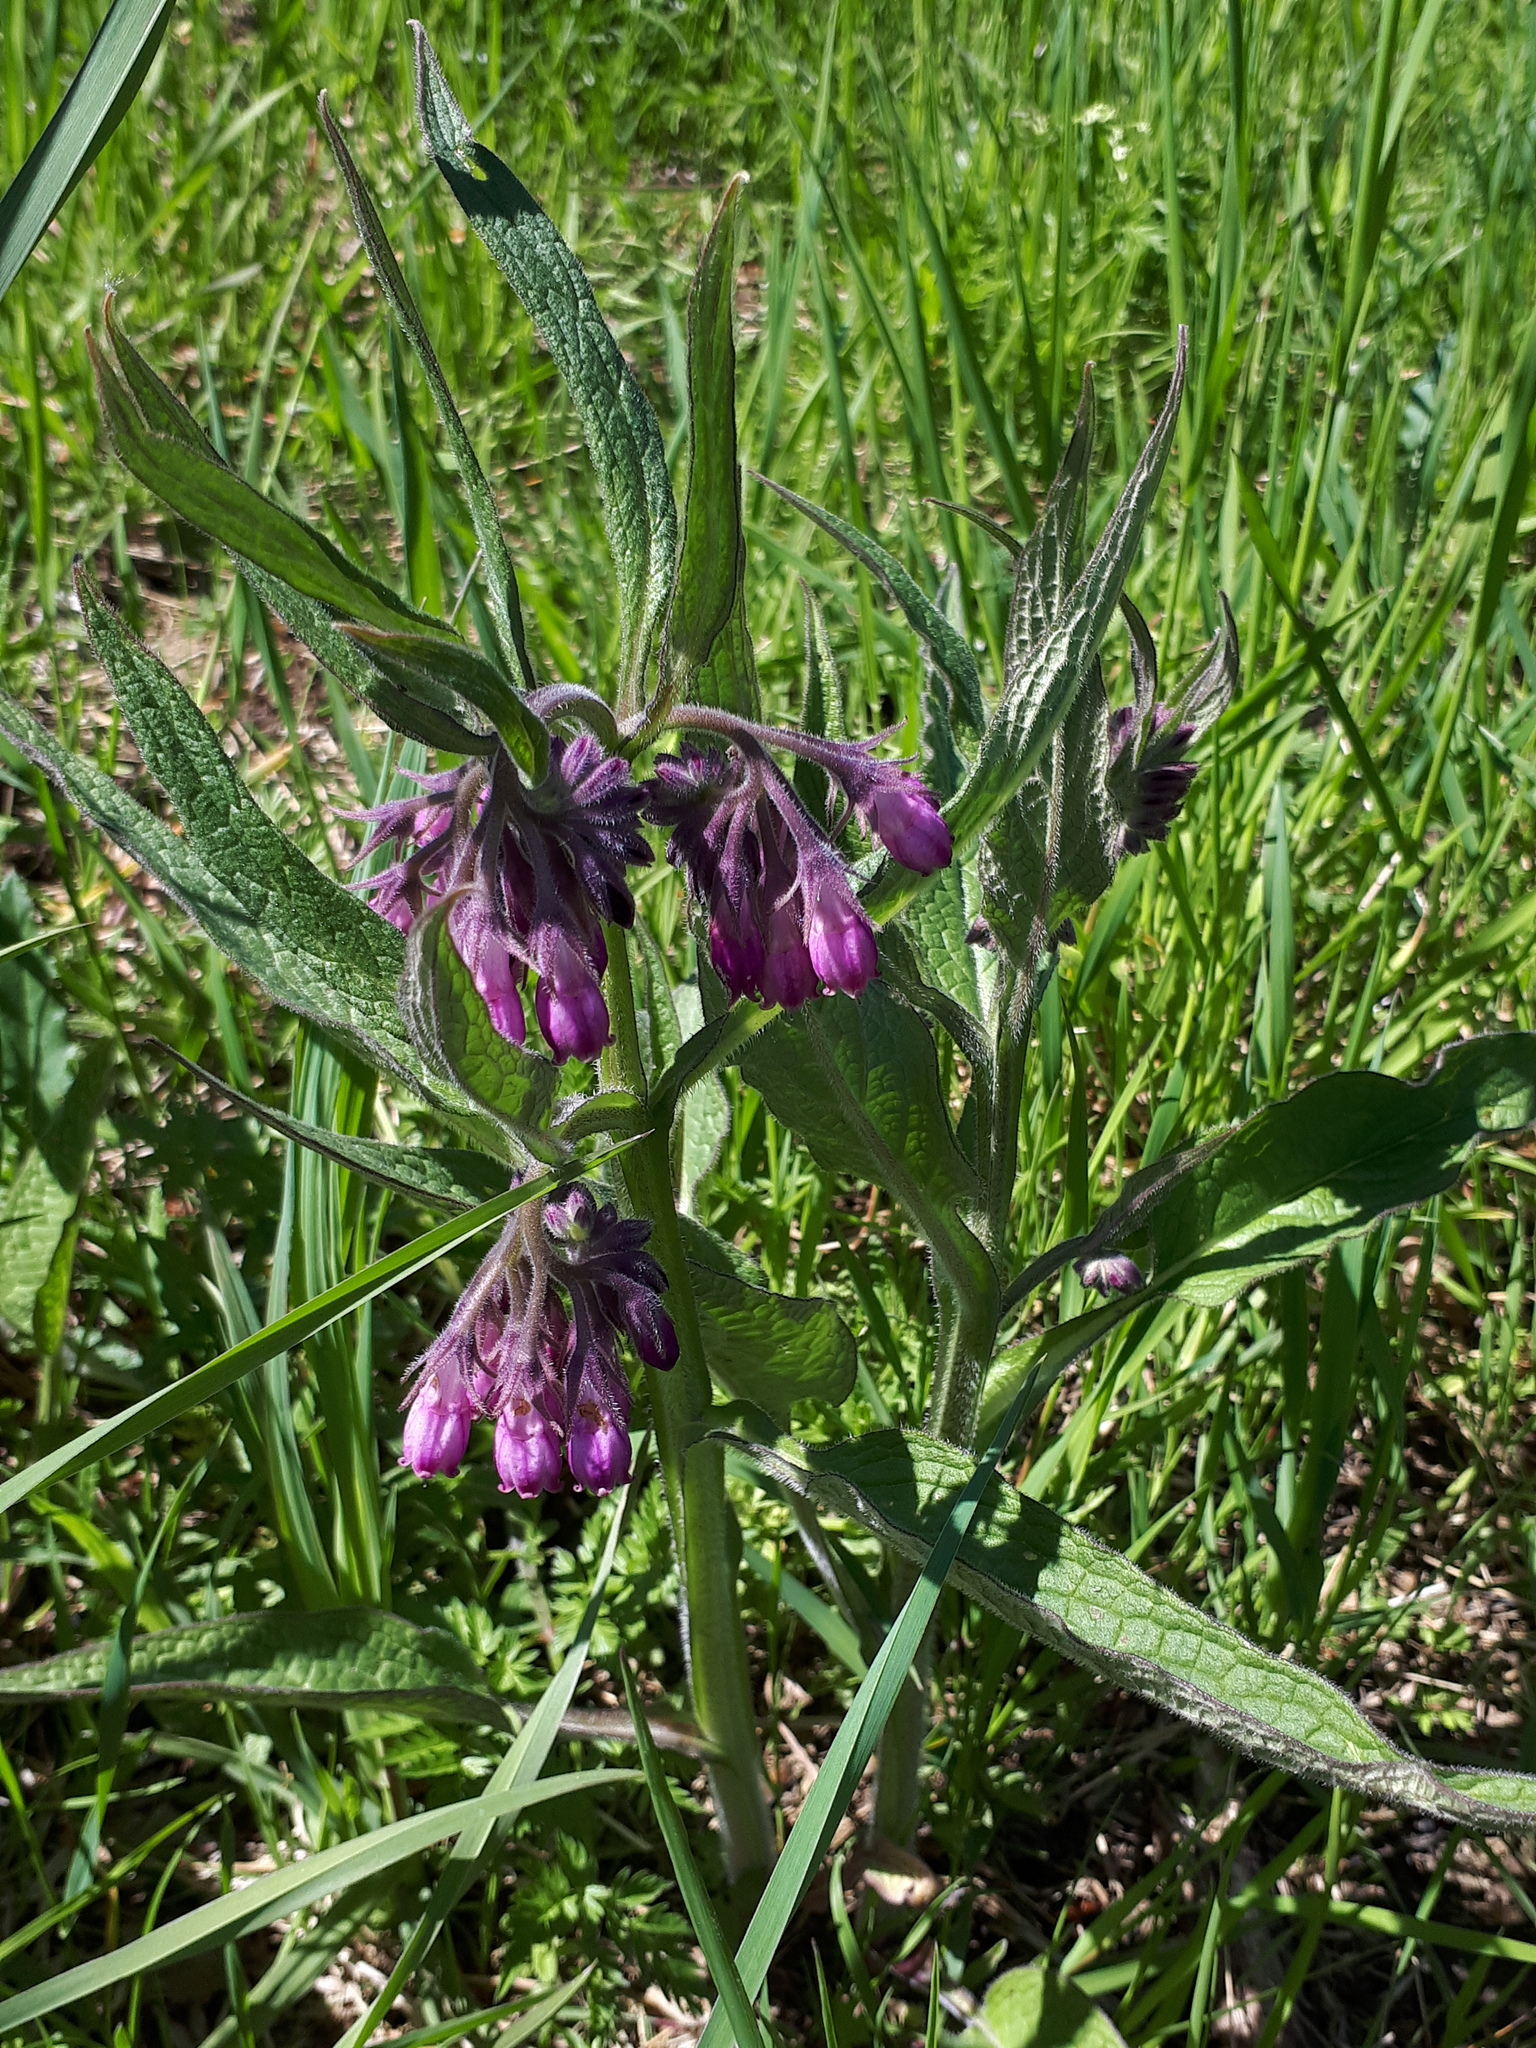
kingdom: Plantae
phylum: Tracheophyta
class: Magnoliopsida
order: Boraginales
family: Boraginaceae
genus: Symphytum
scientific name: Symphytum officinale
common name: Common comfrey
